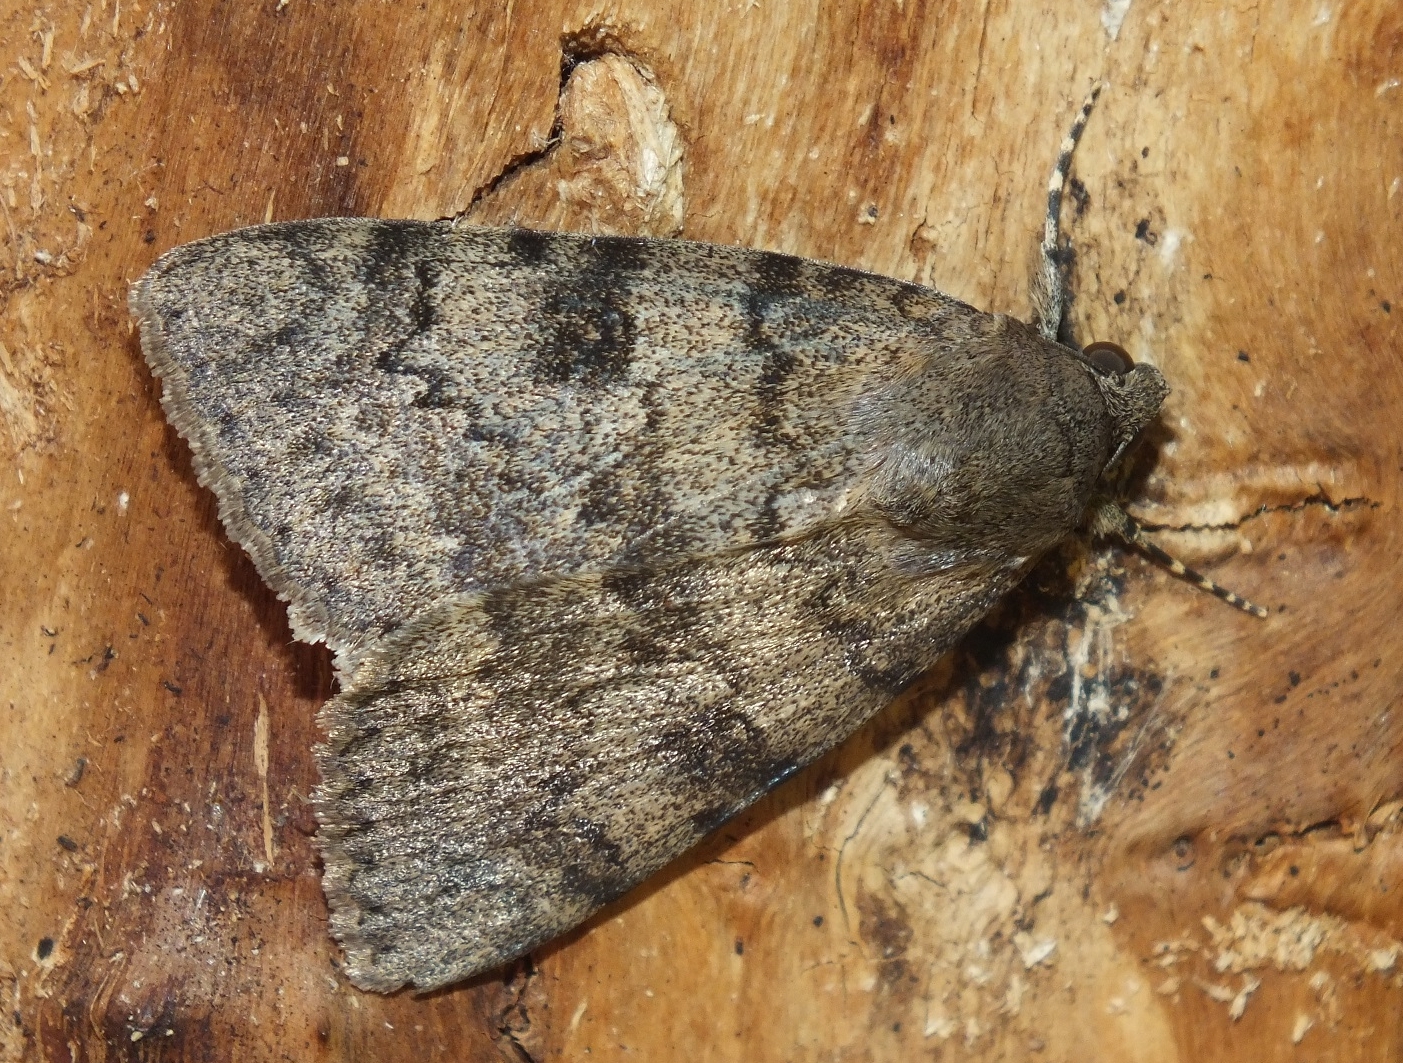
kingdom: Animalia
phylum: Arthropoda
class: Insecta
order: Lepidoptera
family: Erebidae
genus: Catocala
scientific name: Catocala puerpera
